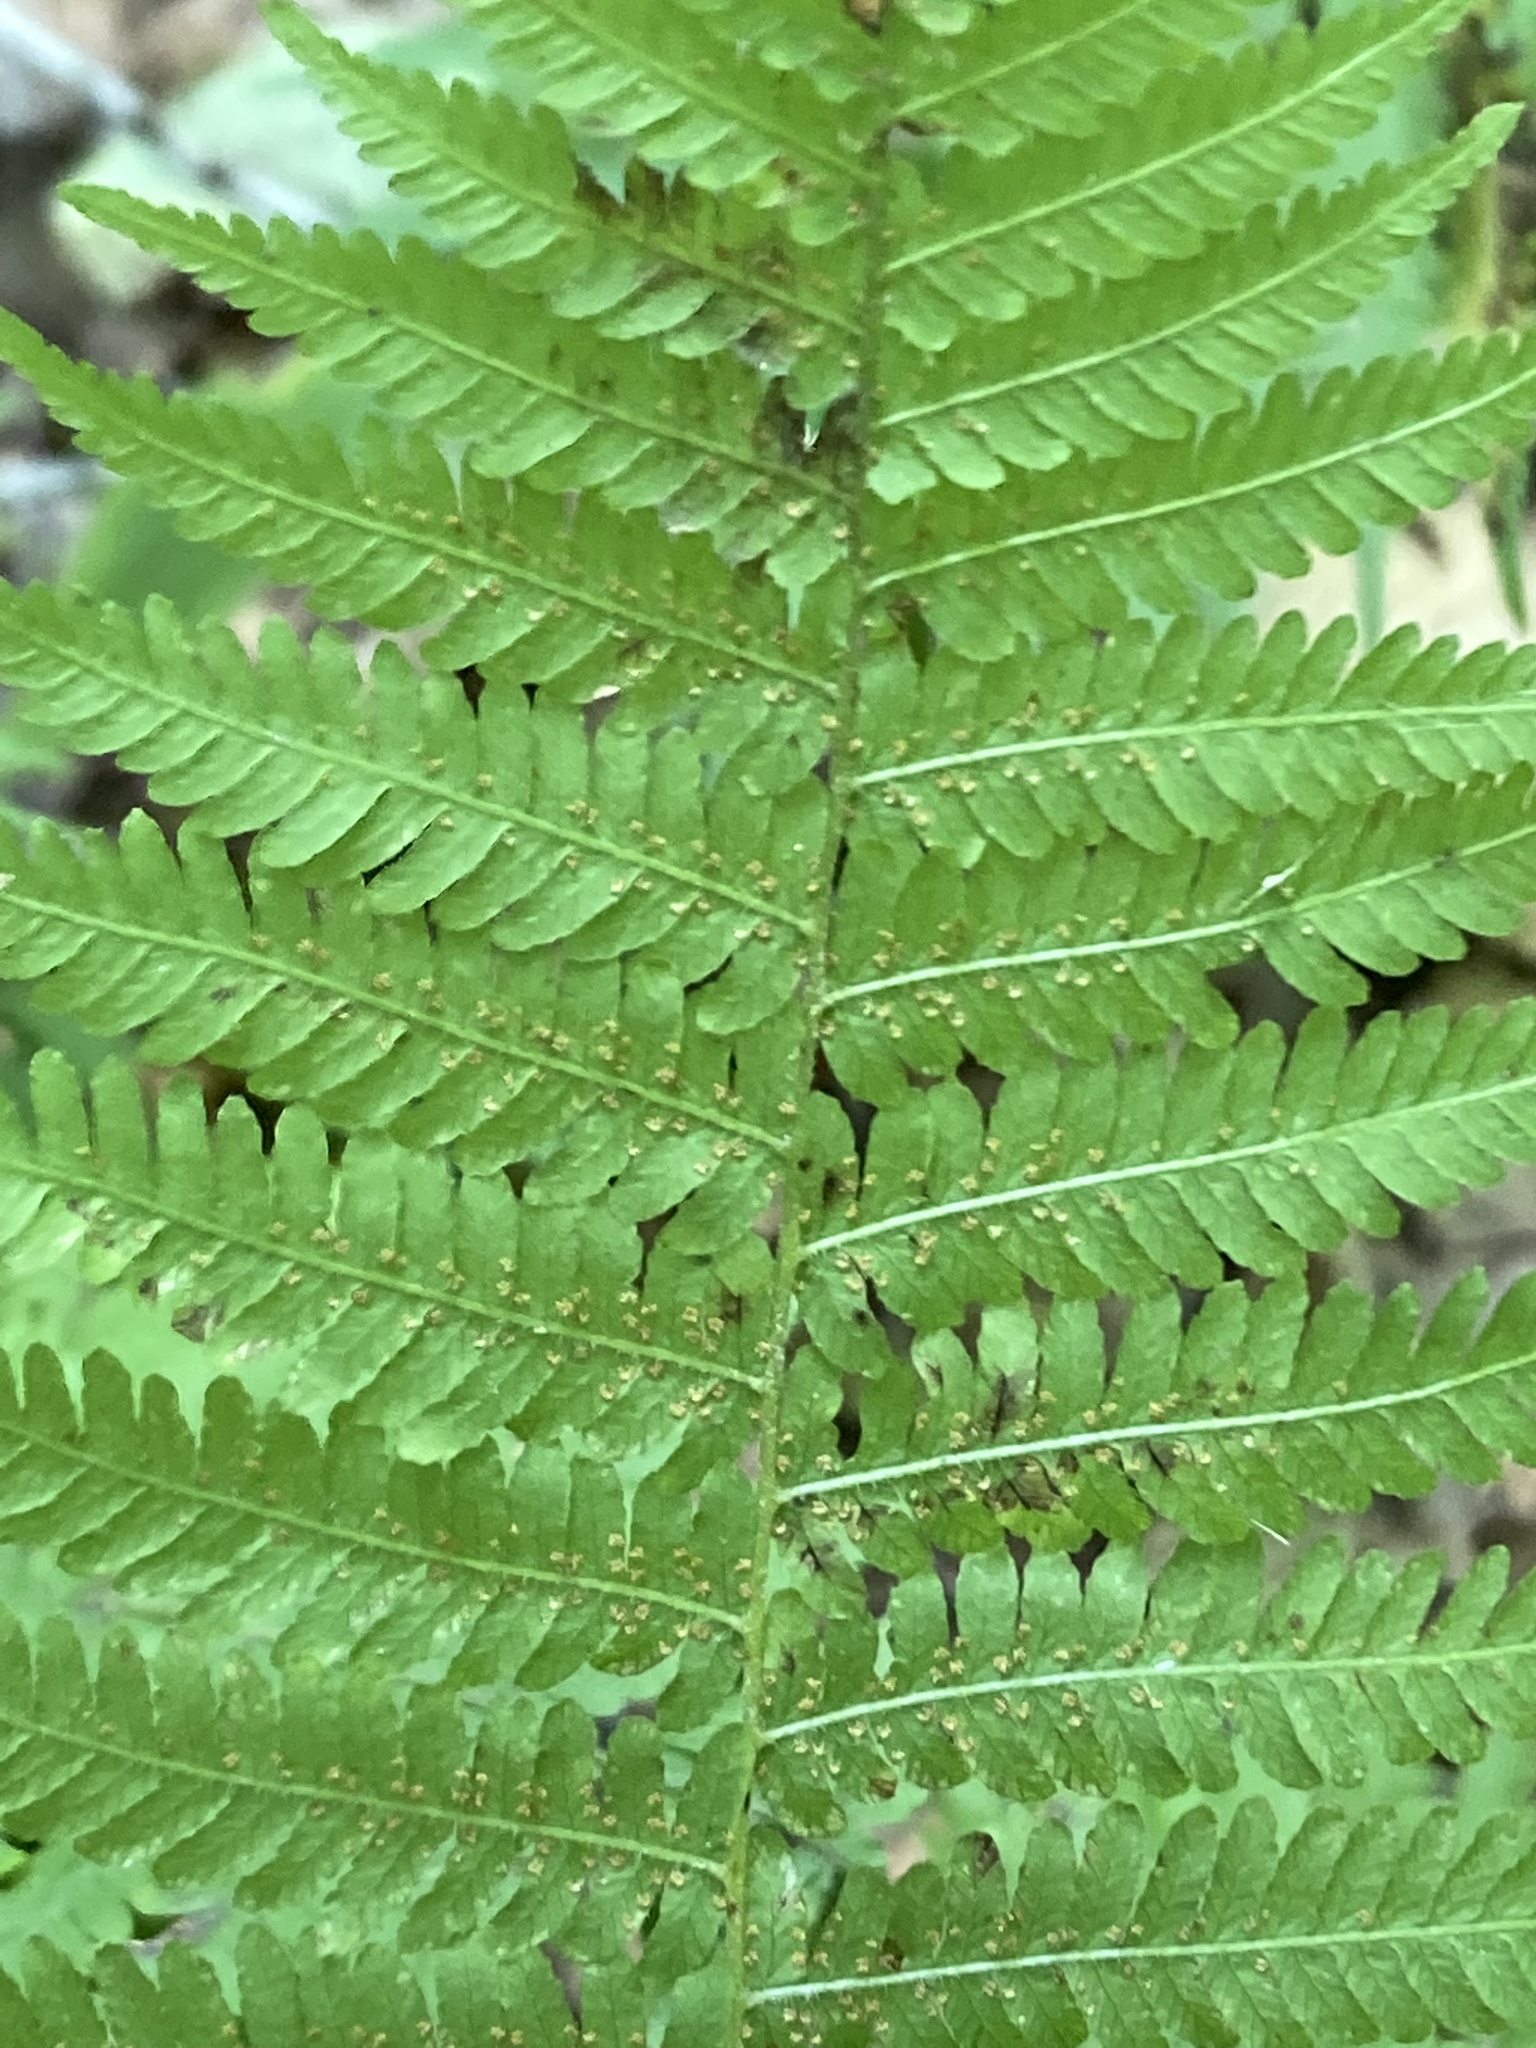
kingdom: Plantae
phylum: Tracheophyta
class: Polypodiopsida
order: Polypodiales
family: Thelypteridaceae
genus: Amauropelta
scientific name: Amauropelta noveboracensis
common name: New york fern
